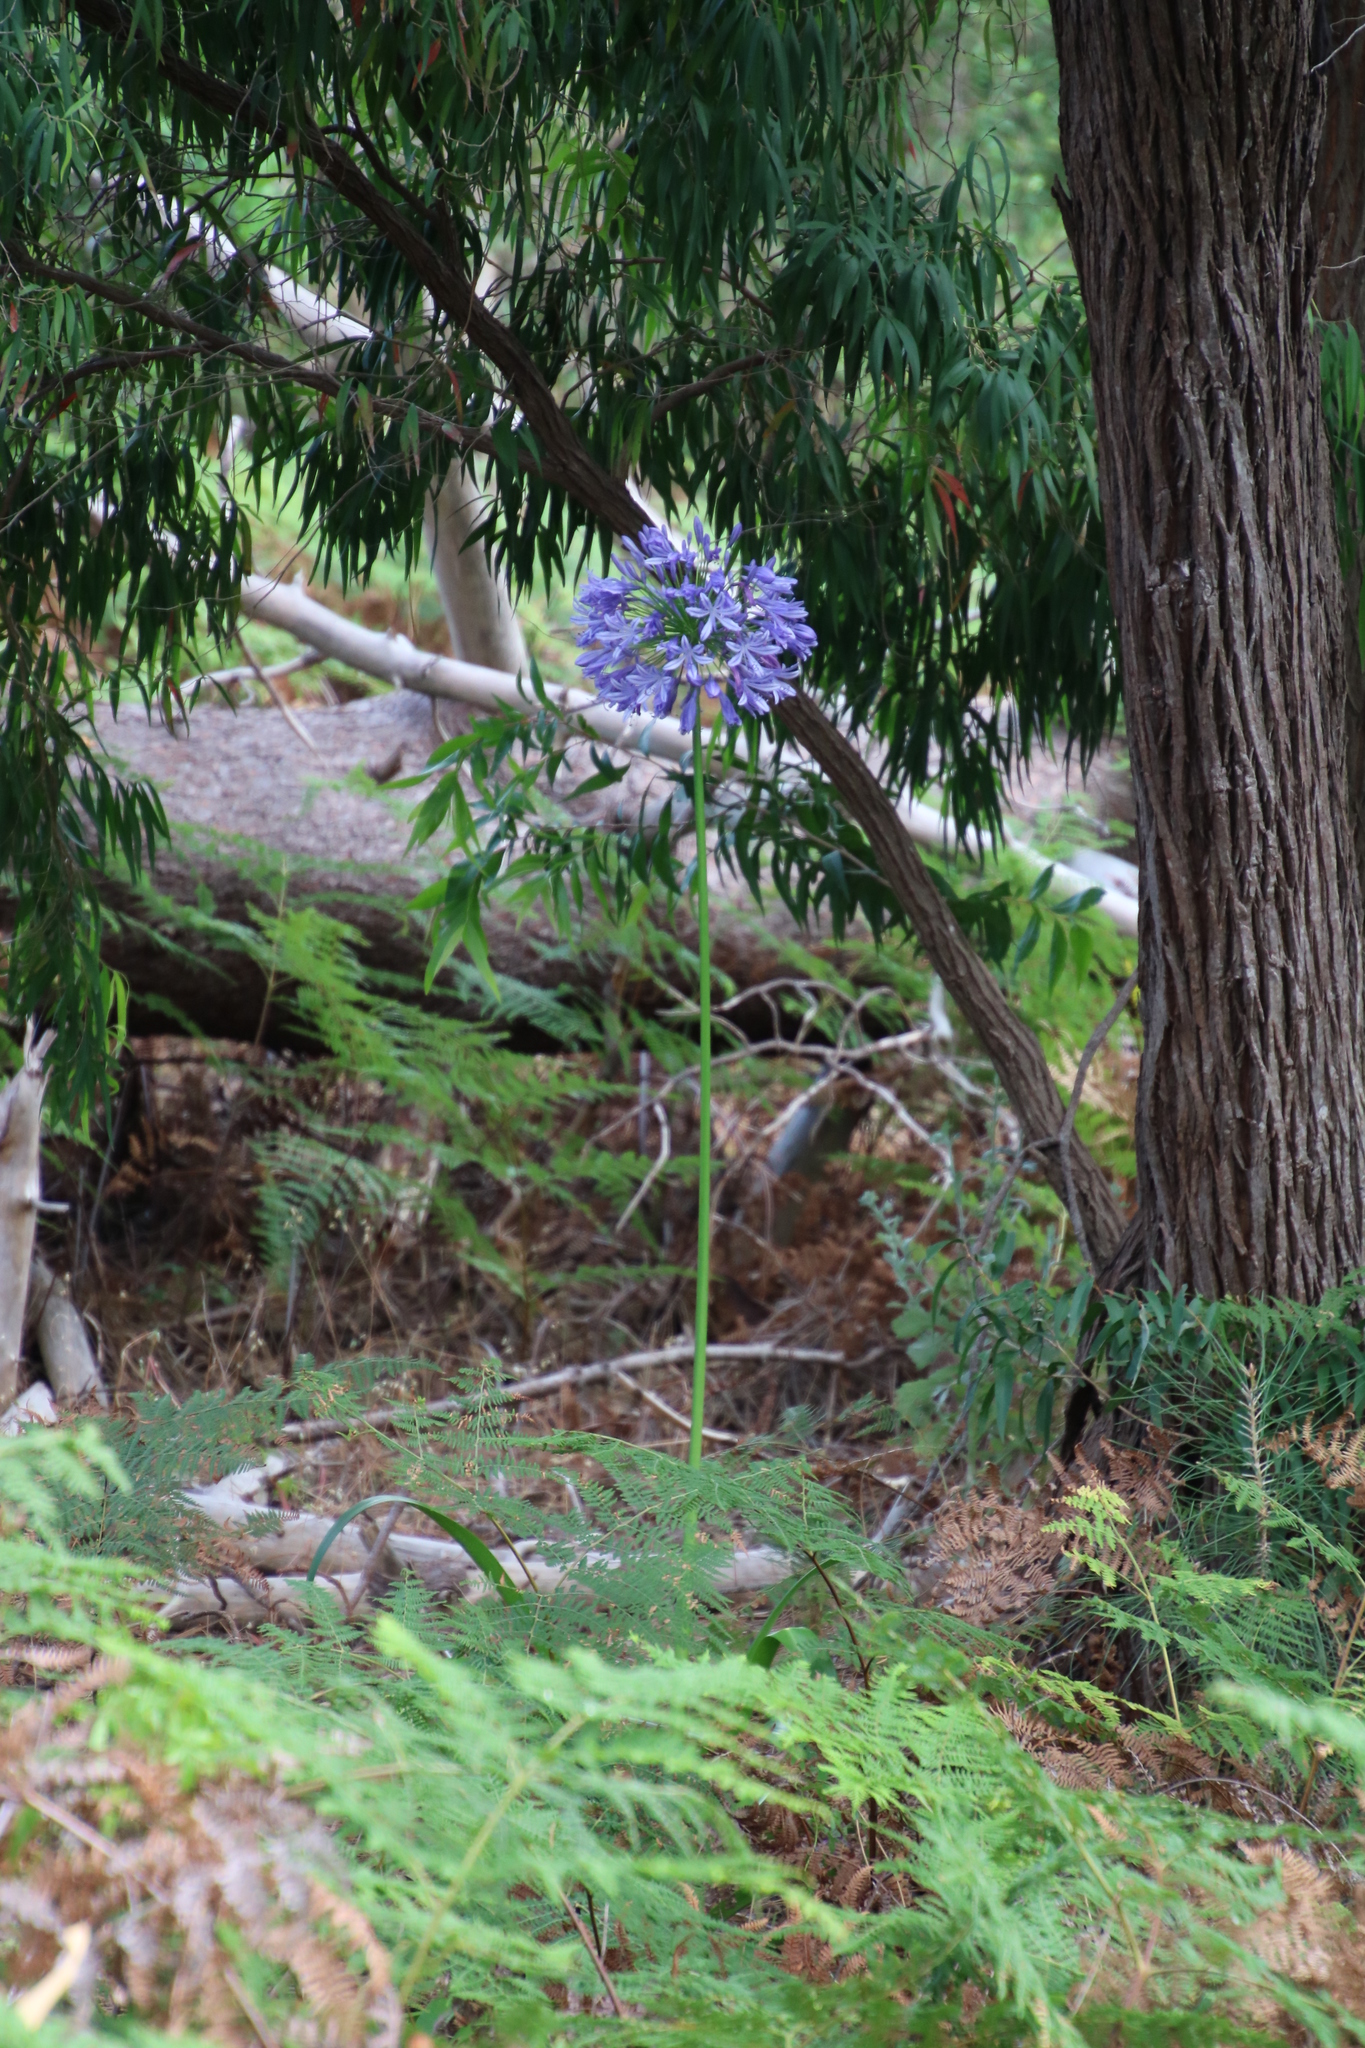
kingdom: Plantae
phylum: Tracheophyta
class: Liliopsida
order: Asparagales
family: Amaryllidaceae
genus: Agapanthus
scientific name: Agapanthus praecox
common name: African-lily
